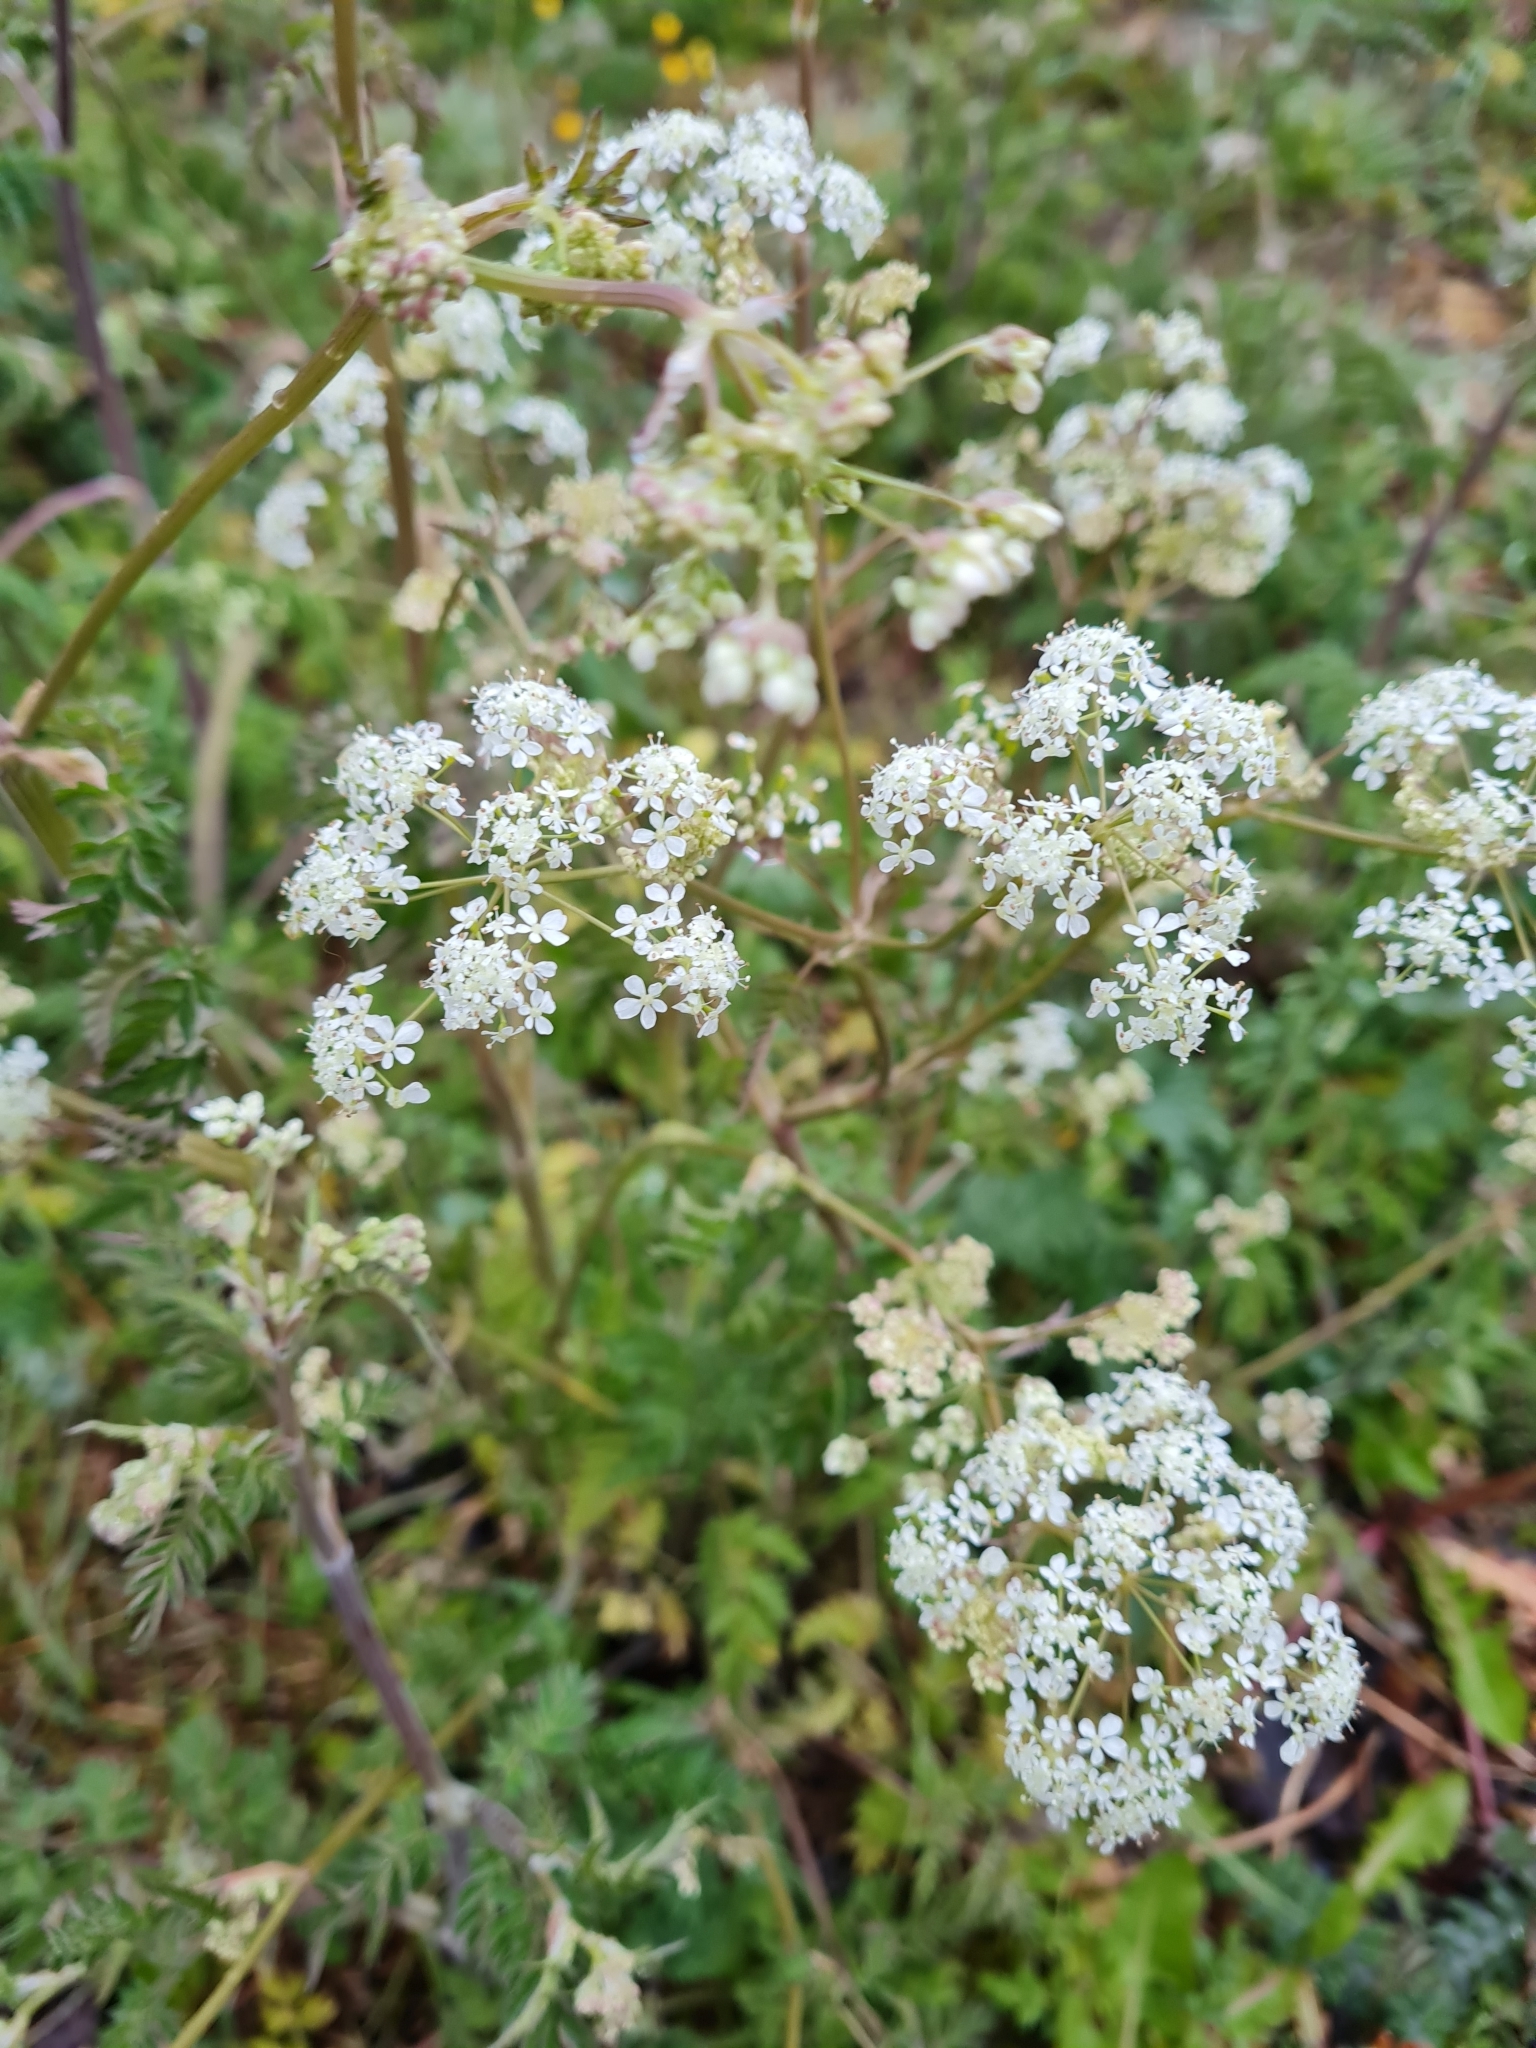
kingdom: Plantae
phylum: Tracheophyta
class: Magnoliopsida
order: Apiales
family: Apiaceae
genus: Anthriscus
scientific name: Anthriscus sylvestris
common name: Cow parsley
